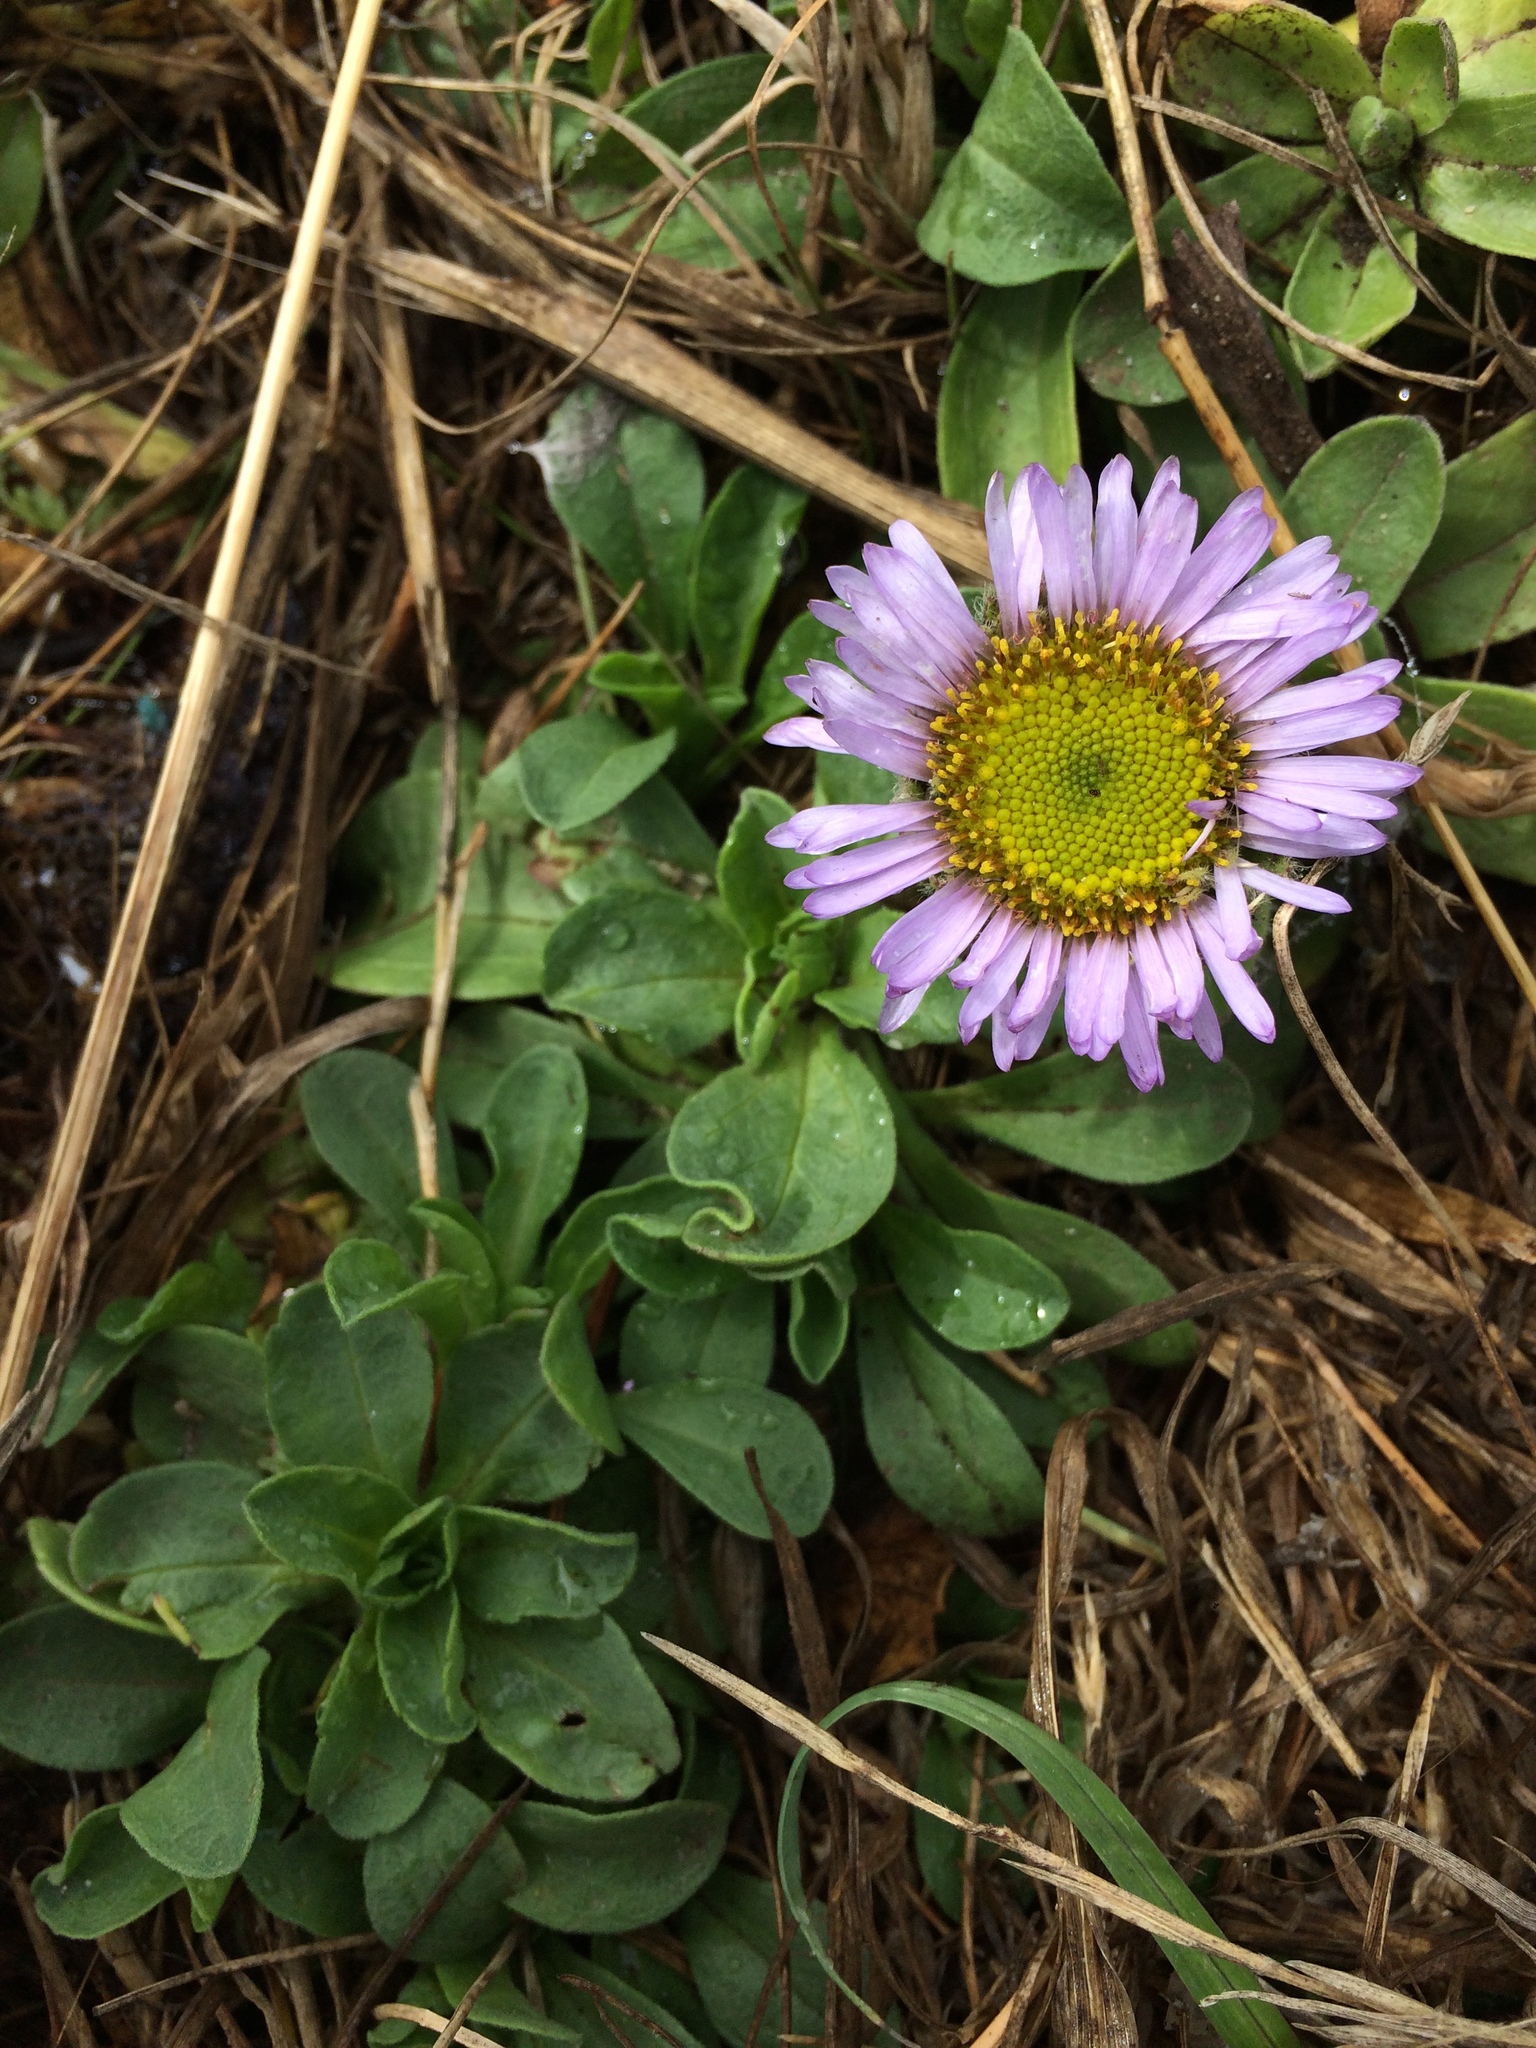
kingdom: Plantae
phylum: Tracheophyta
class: Magnoliopsida
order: Asterales
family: Asteraceae
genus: Erigeron
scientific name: Erigeron glaucus
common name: Seaside daisy
